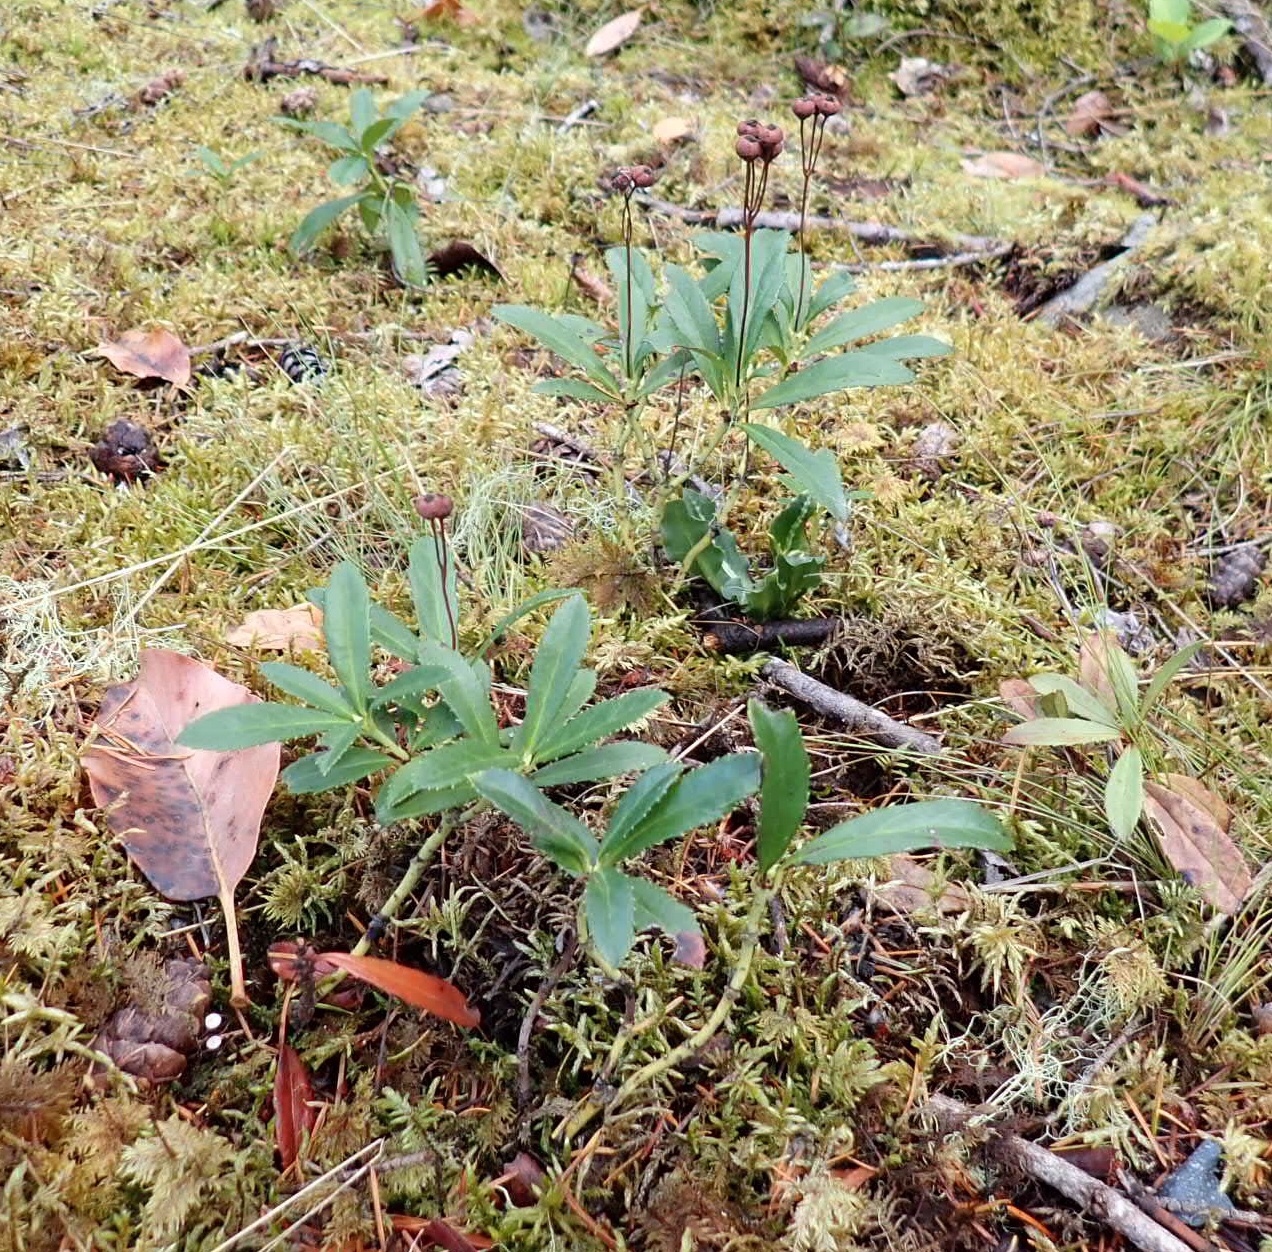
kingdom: Plantae
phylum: Tracheophyta
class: Magnoliopsida
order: Ericales
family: Ericaceae
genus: Chimaphila
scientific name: Chimaphila umbellata
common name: Pipsissewa
